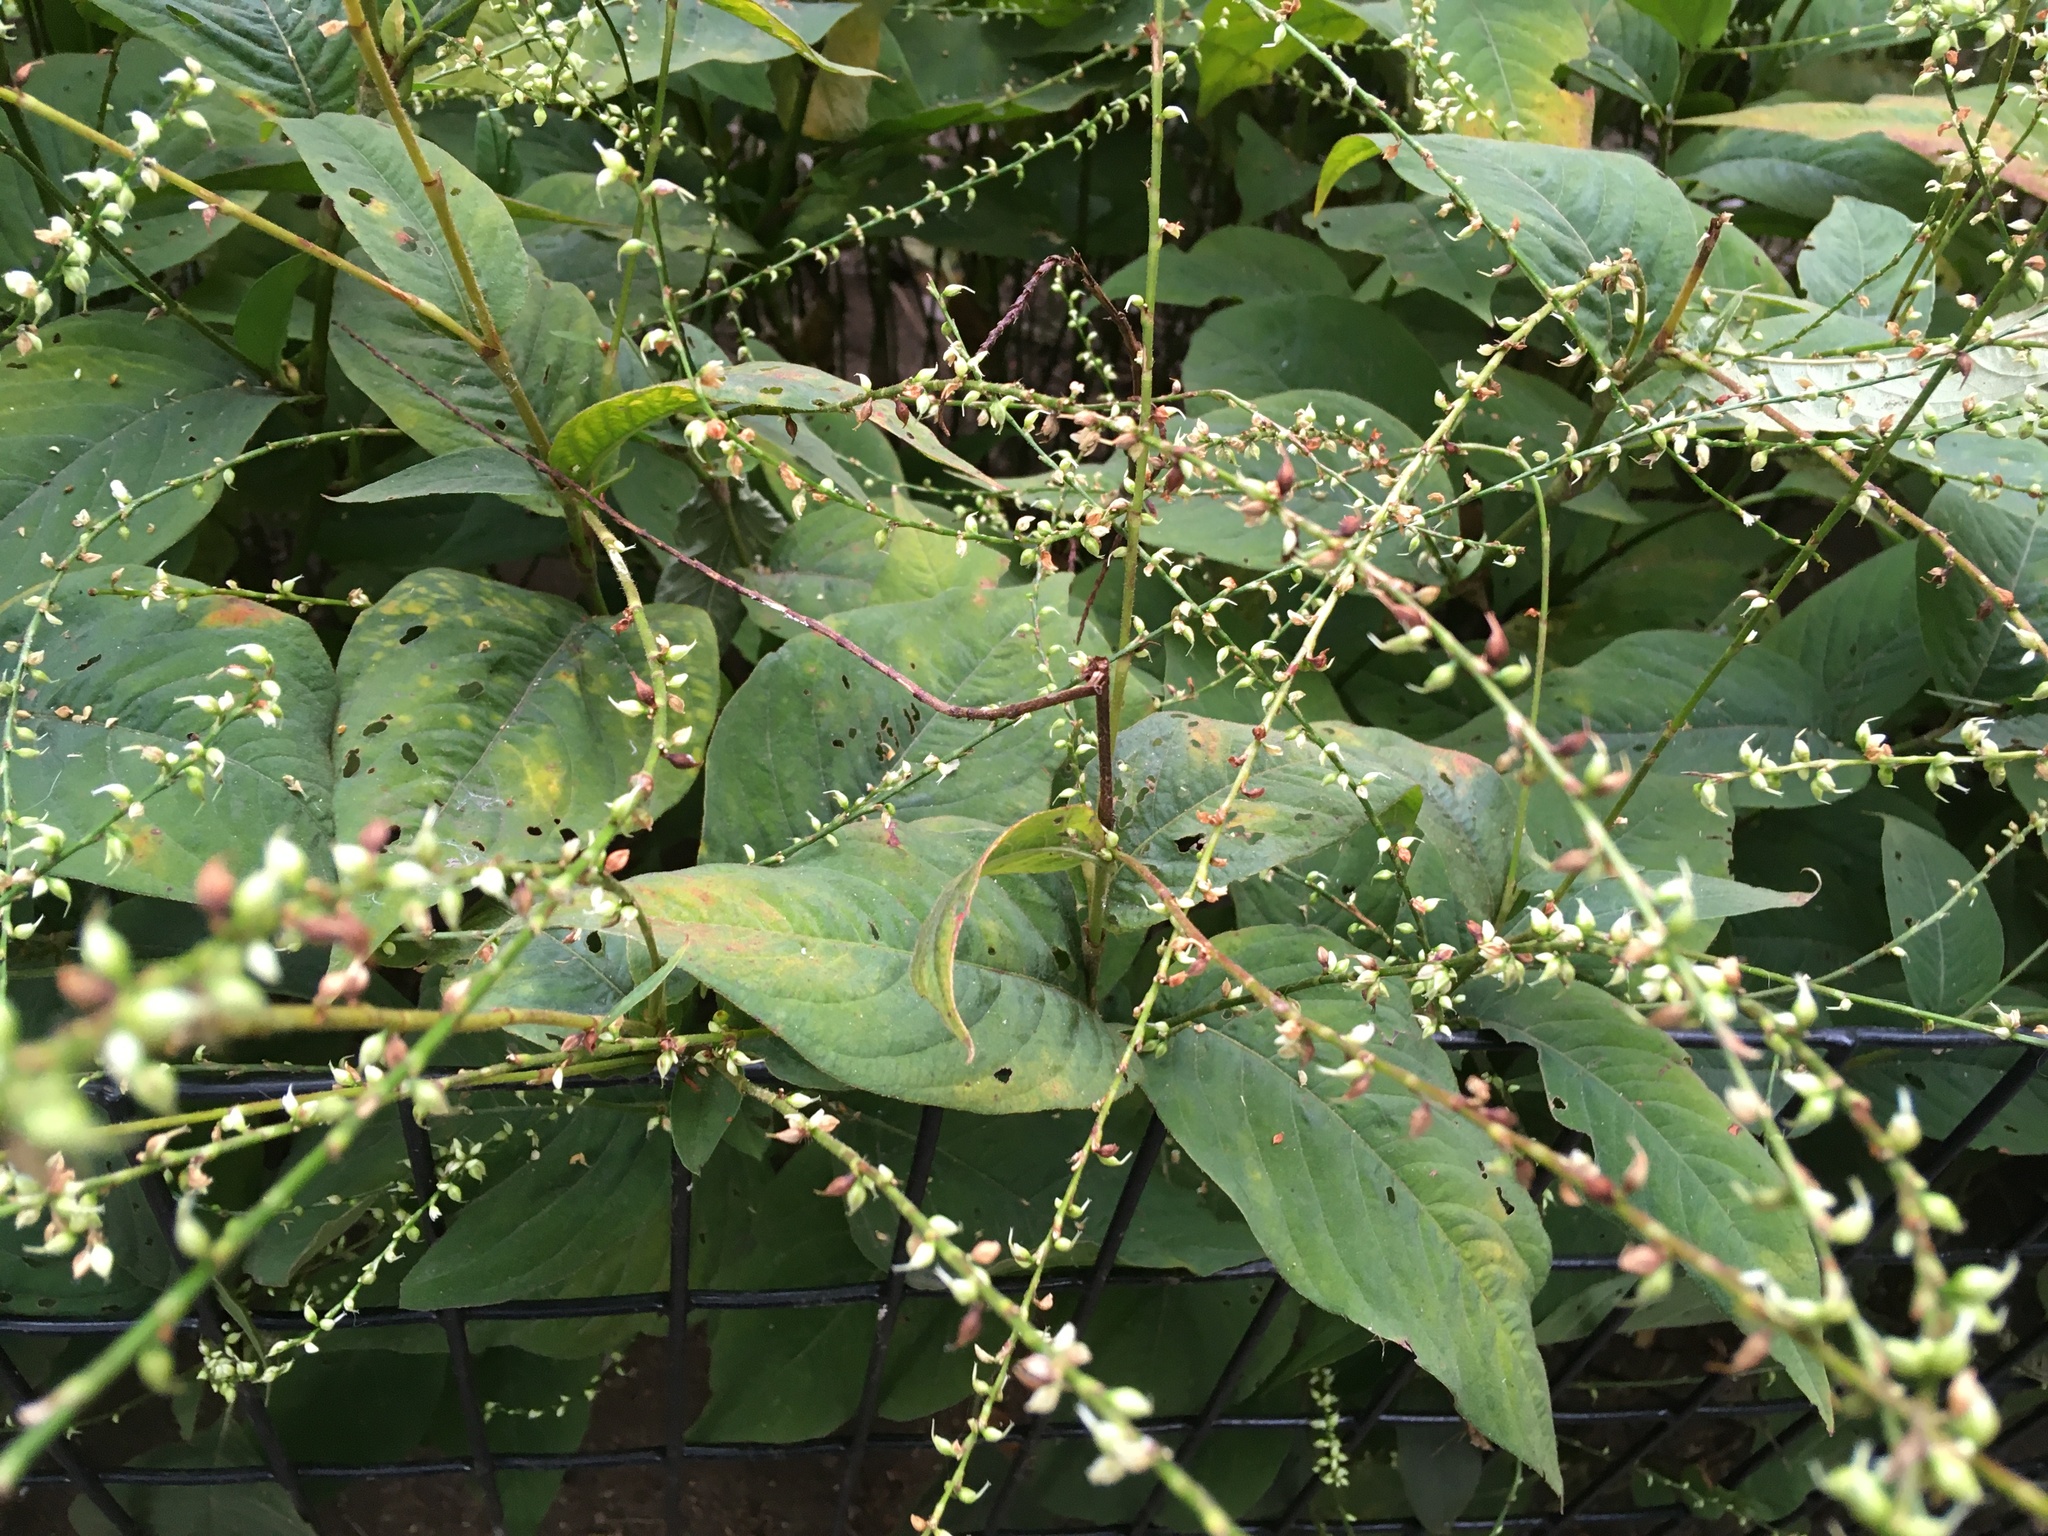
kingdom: Plantae
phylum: Tracheophyta
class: Magnoliopsida
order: Caryophyllales
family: Polygonaceae
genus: Persicaria
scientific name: Persicaria virginiana
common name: Jumpseed
